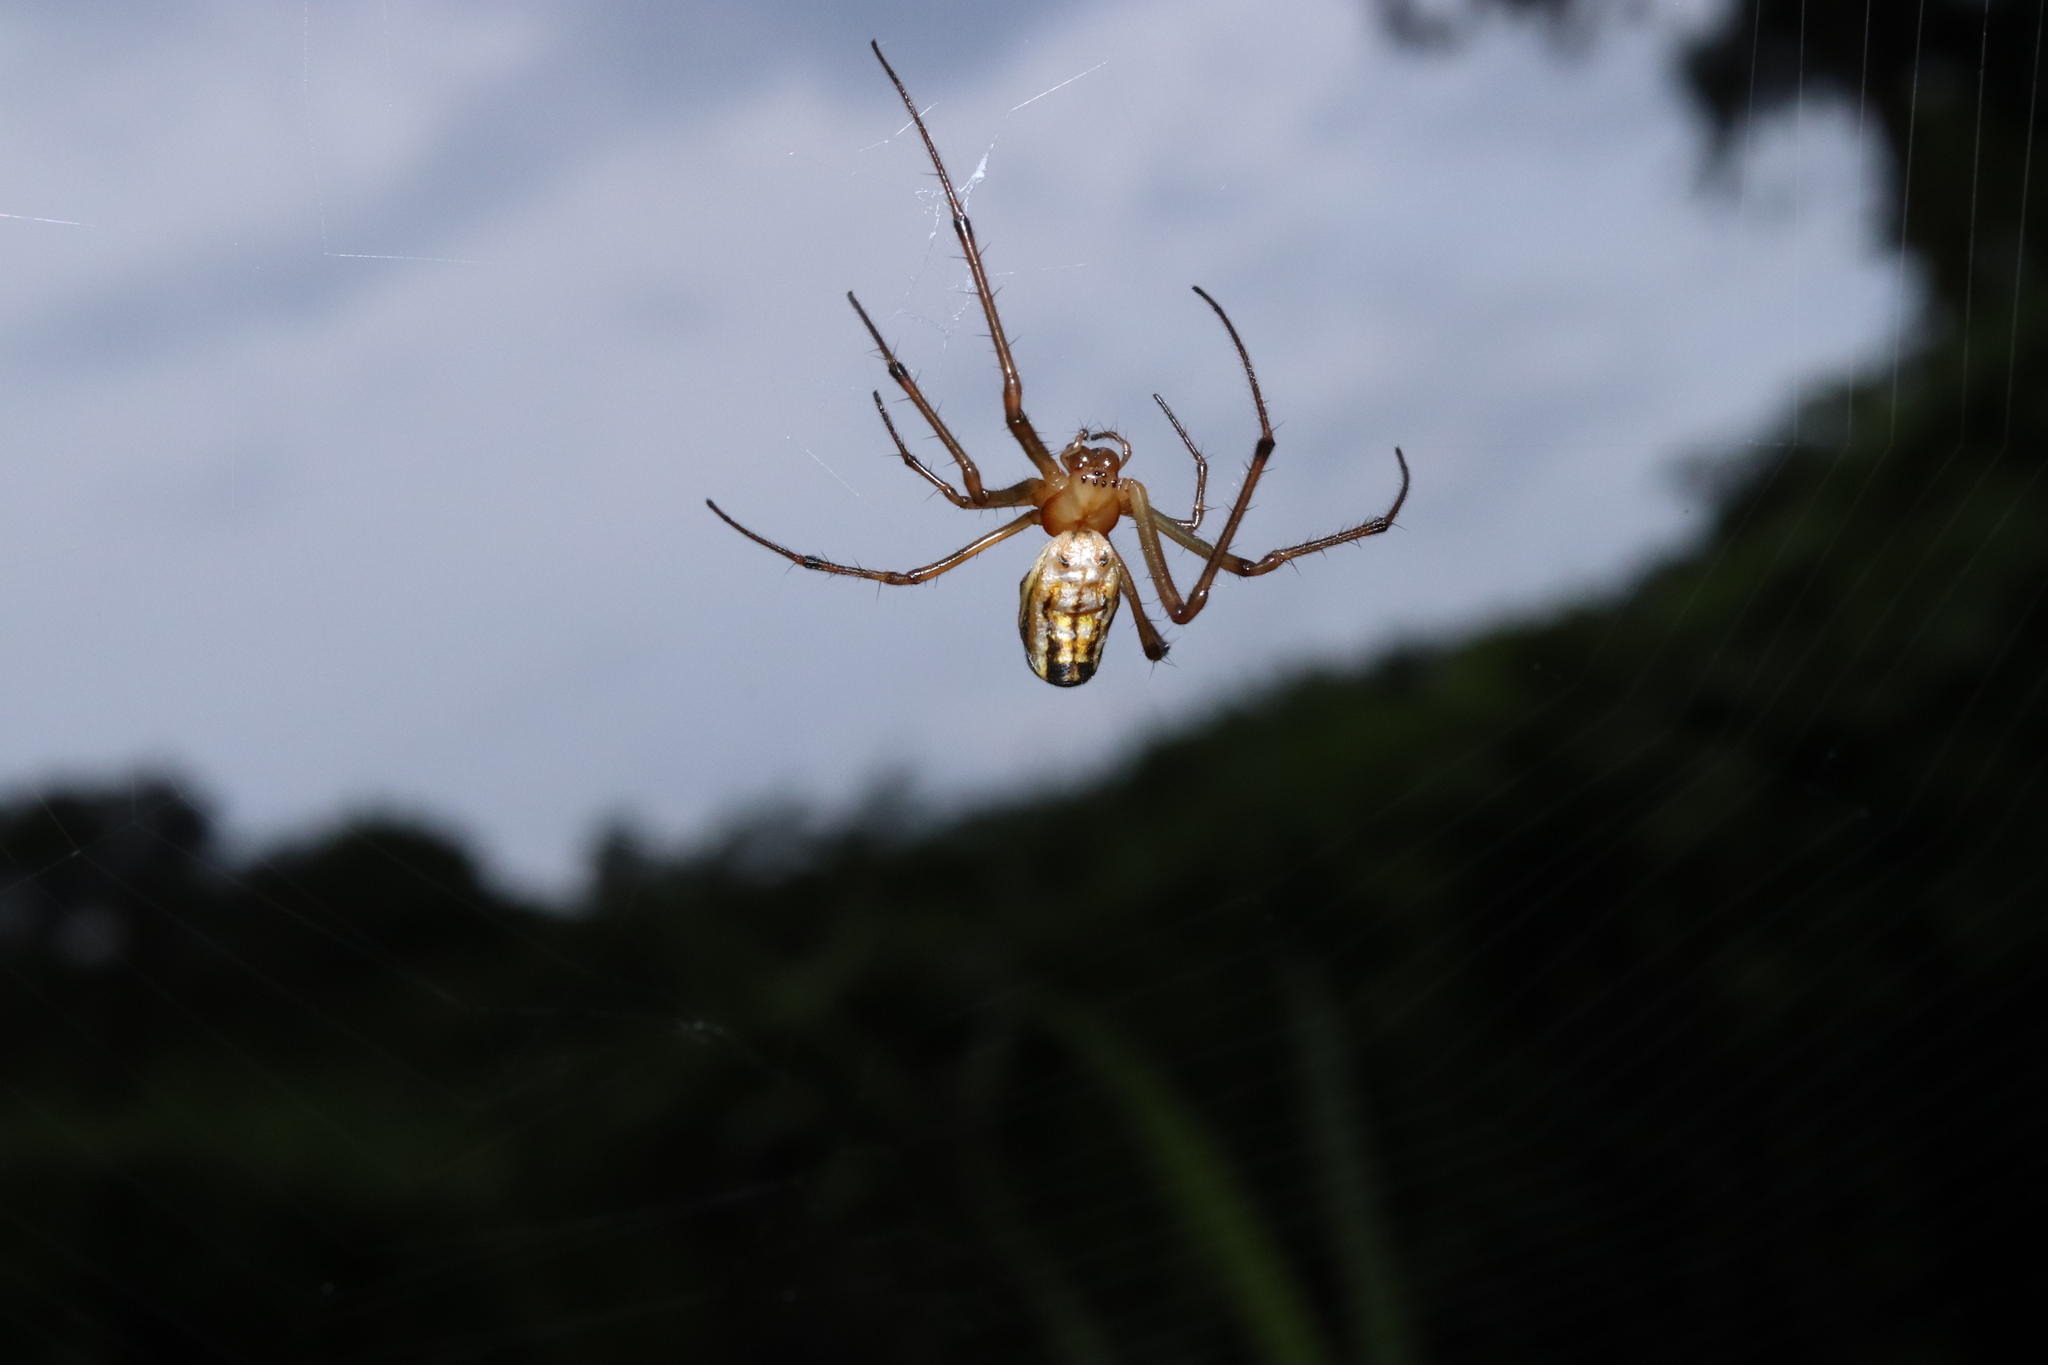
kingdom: Animalia
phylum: Arthropoda
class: Arachnida
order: Araneae
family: Tetragnathidae
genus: Leucauge
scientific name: Leucauge blanda
